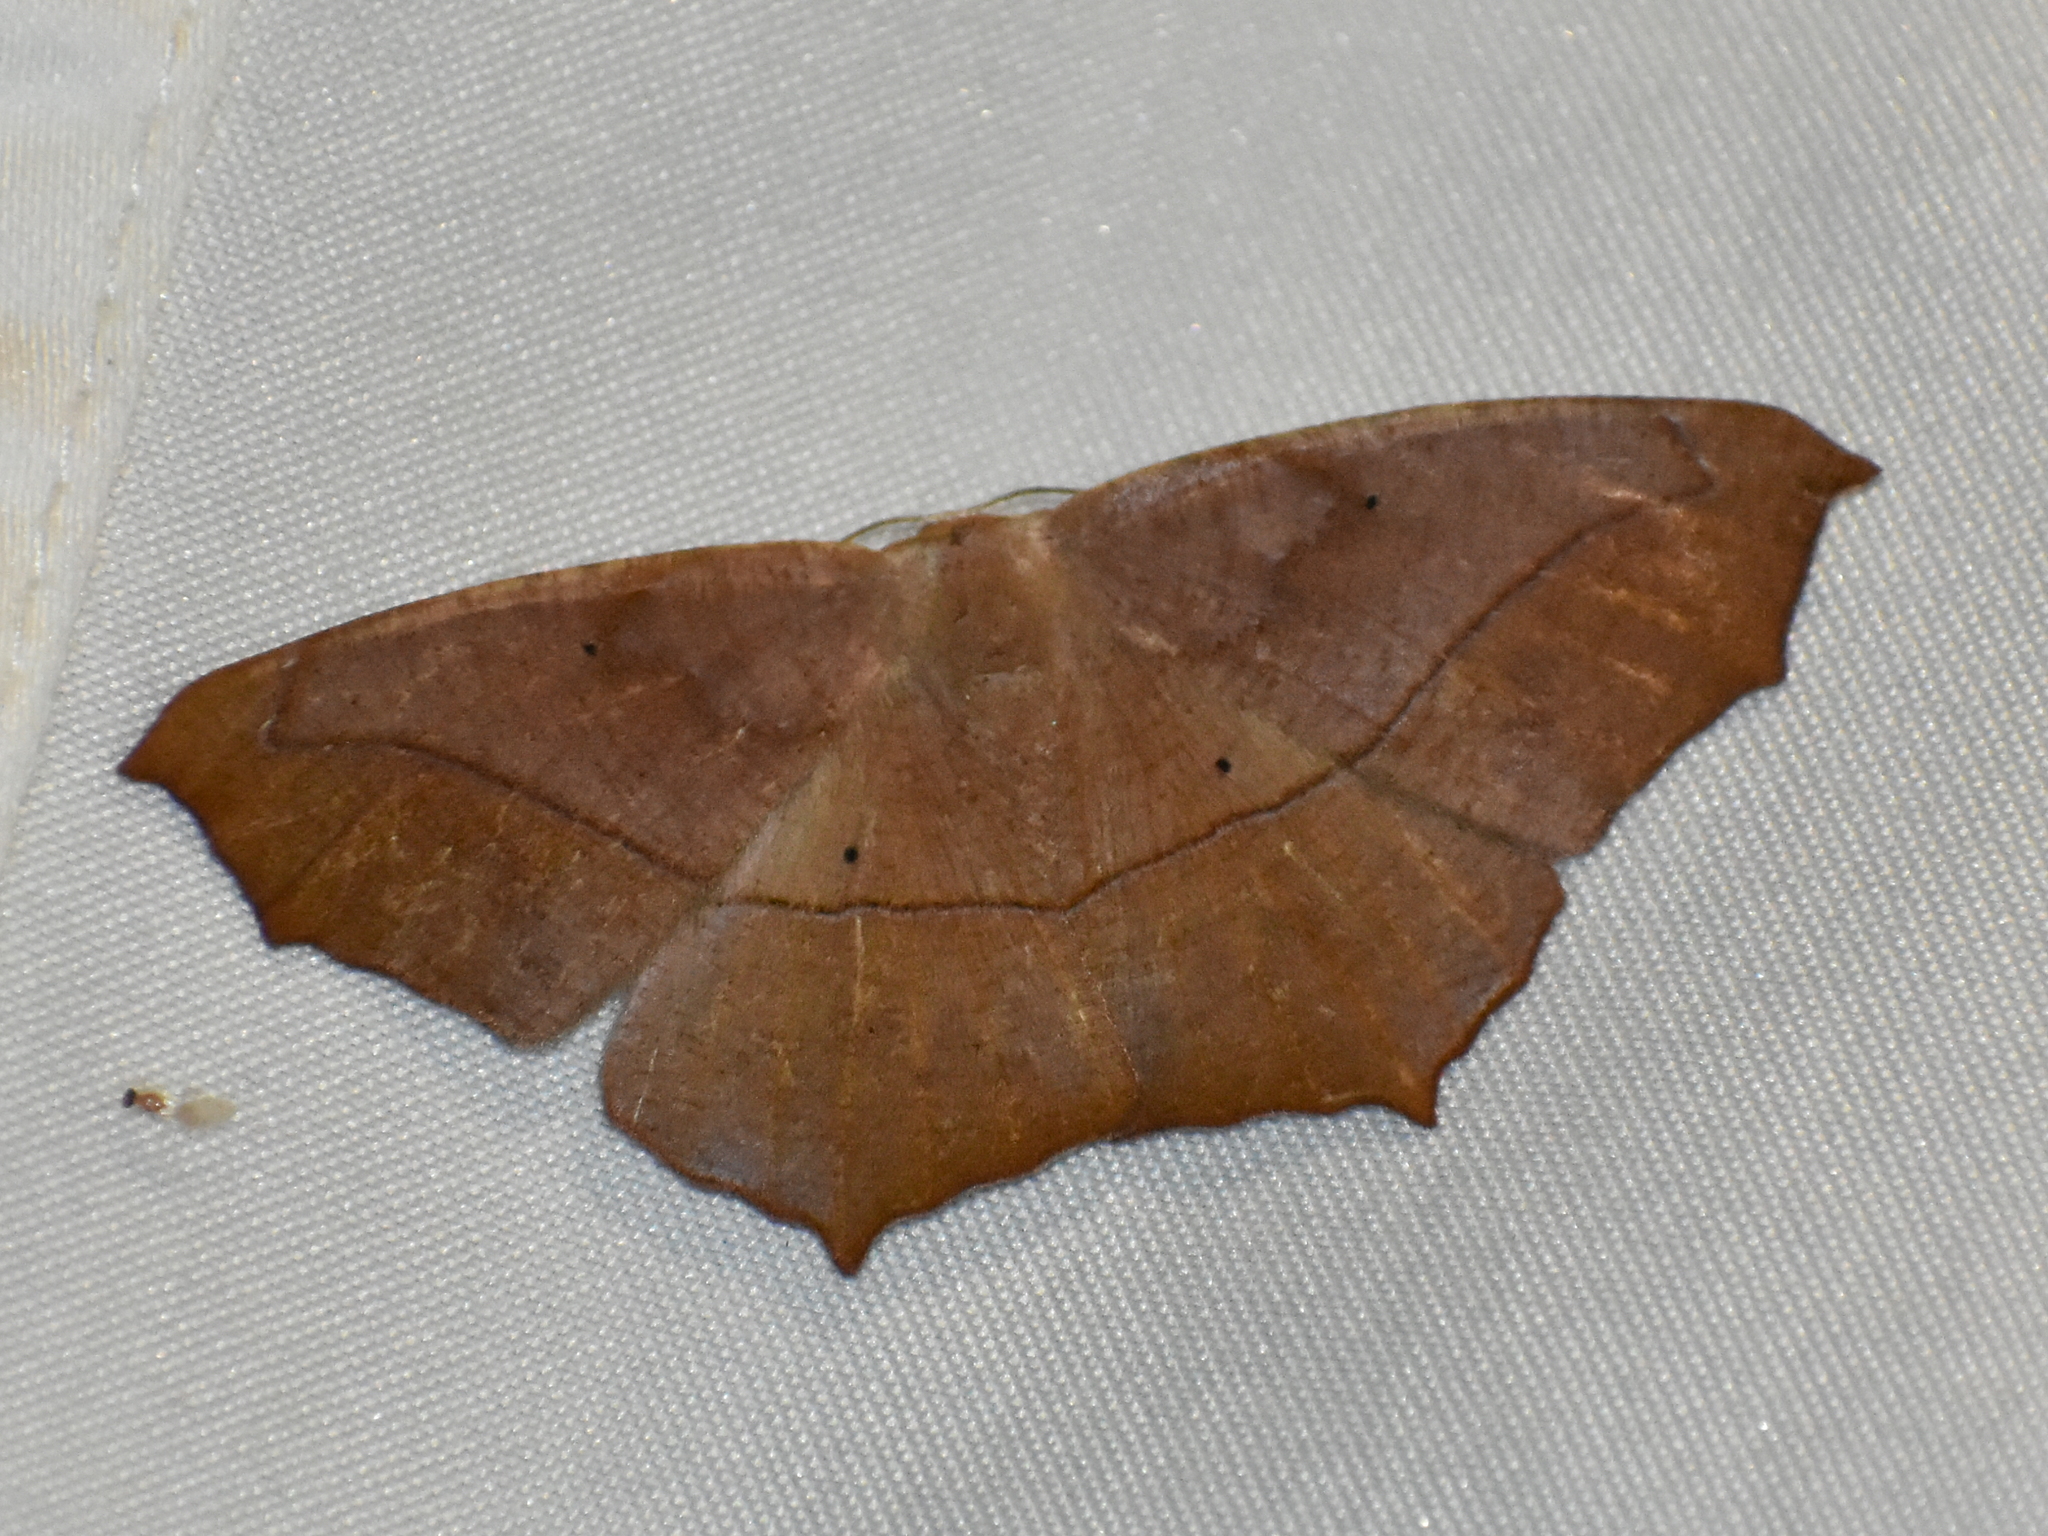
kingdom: Animalia
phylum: Arthropoda
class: Insecta
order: Lepidoptera
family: Geometridae
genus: Prochoerodes
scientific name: Prochoerodes lineola
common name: Large maple spanworm
